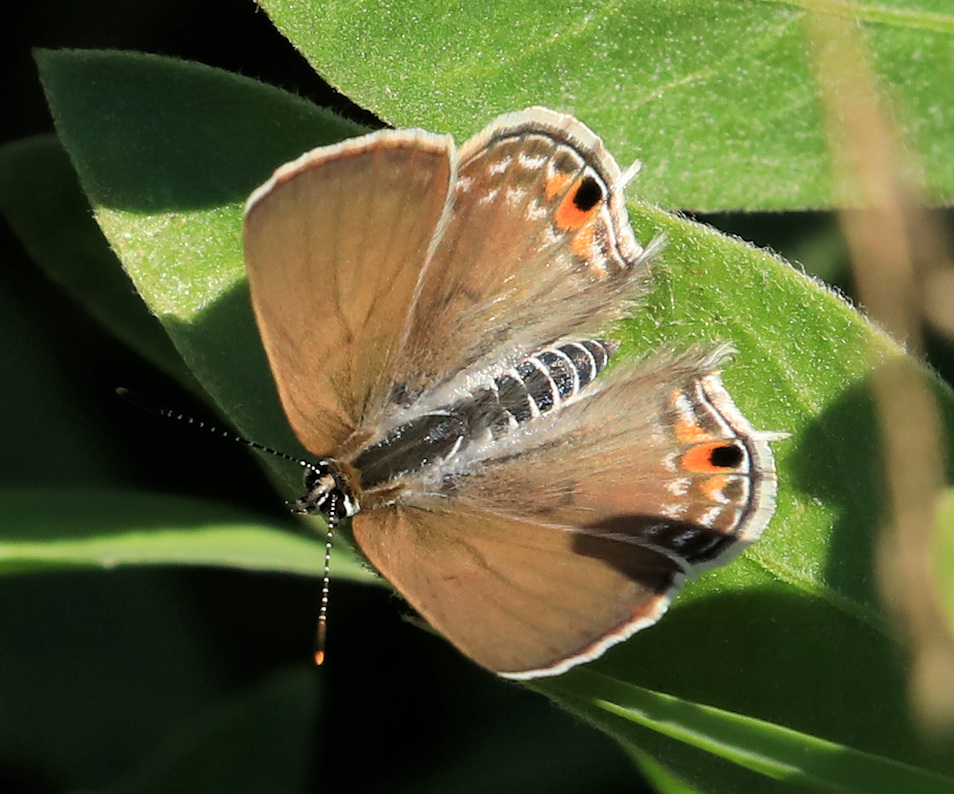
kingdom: Animalia
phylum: Arthropoda
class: Insecta
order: Lepidoptera
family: Lycaenidae
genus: Anthene
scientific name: Anthene amarah
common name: Black-striped hairtail
